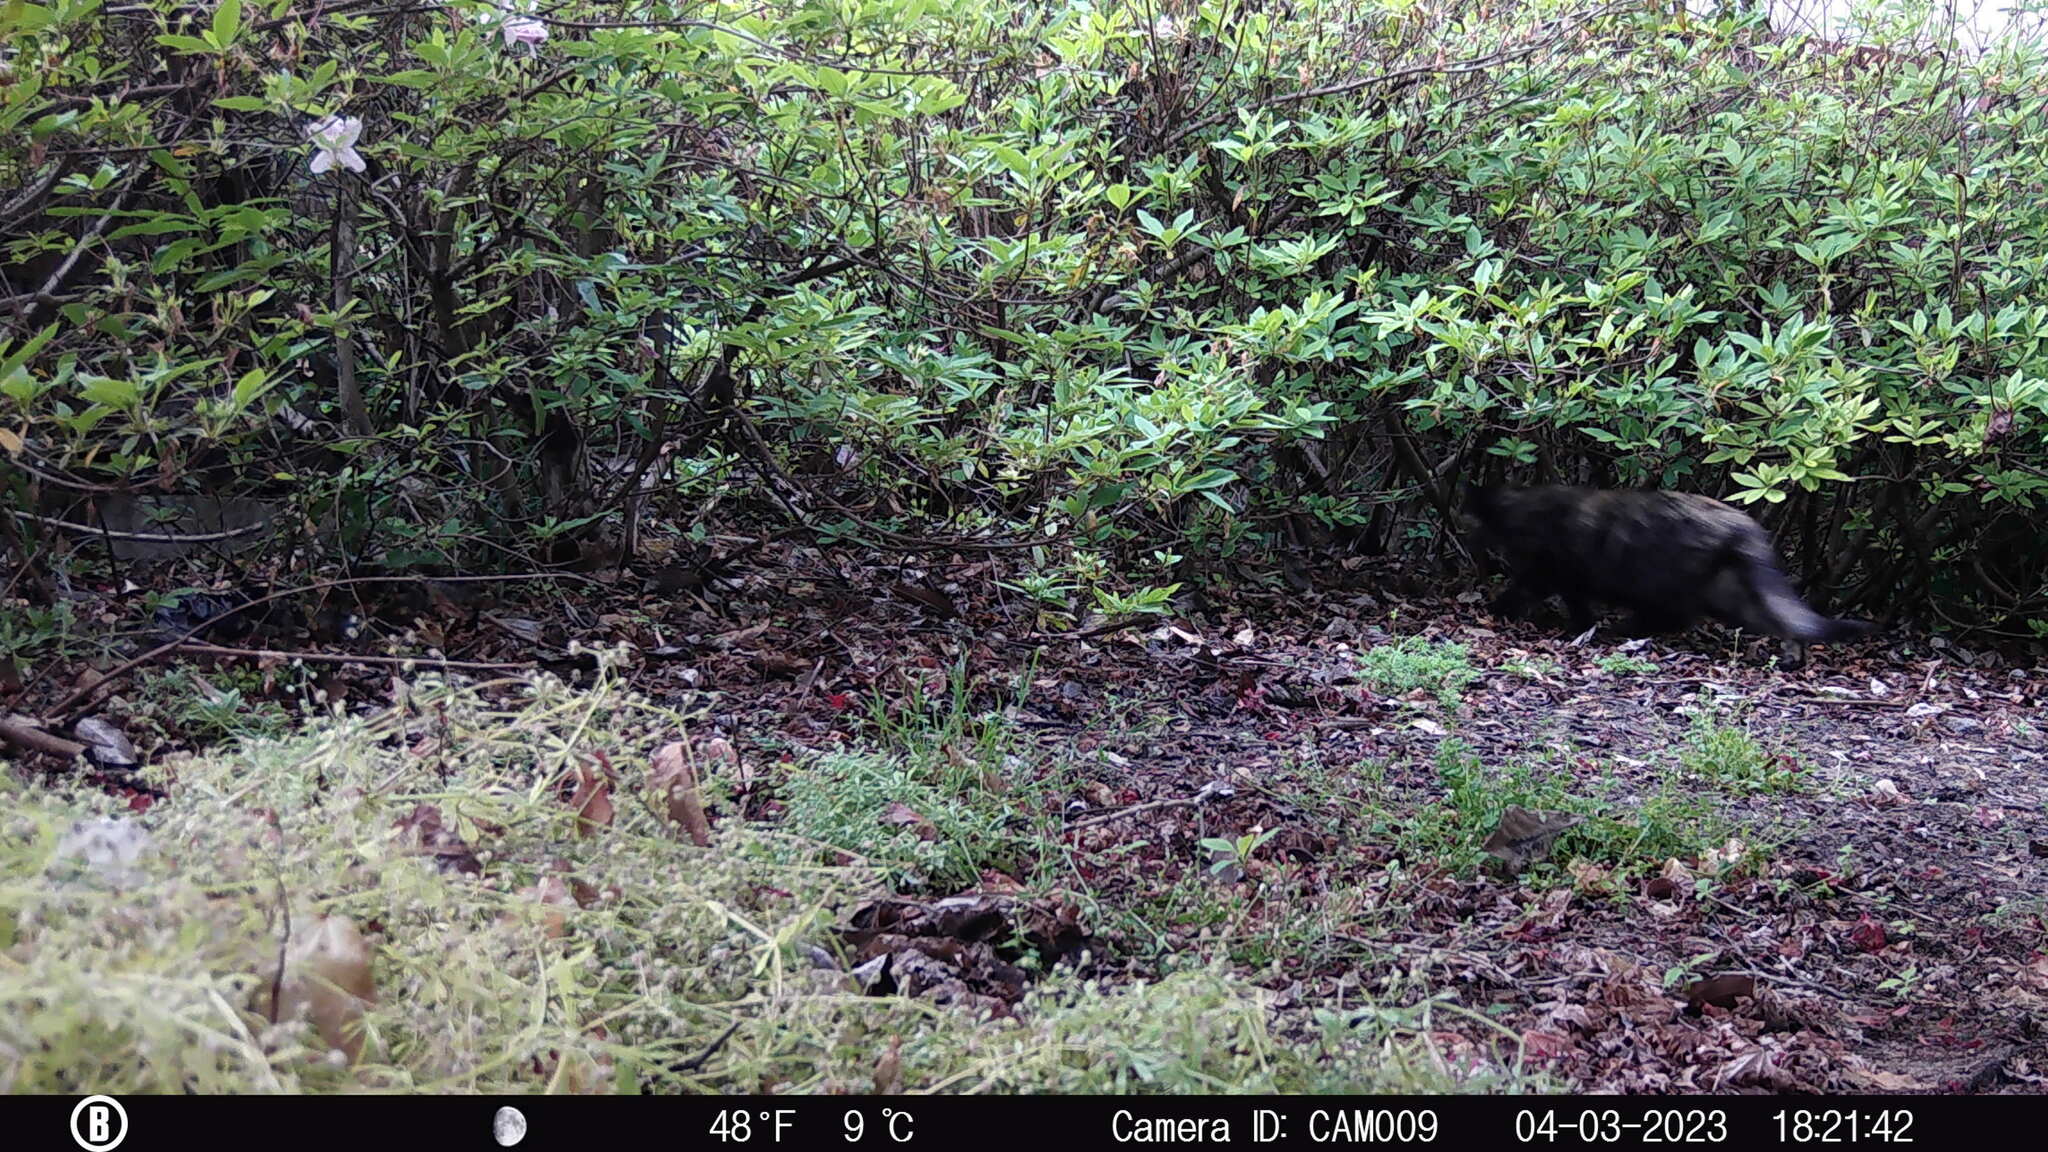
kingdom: Animalia
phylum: Chordata
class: Mammalia
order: Carnivora
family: Felidae
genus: Felis
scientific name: Felis catus
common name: Domestic cat
